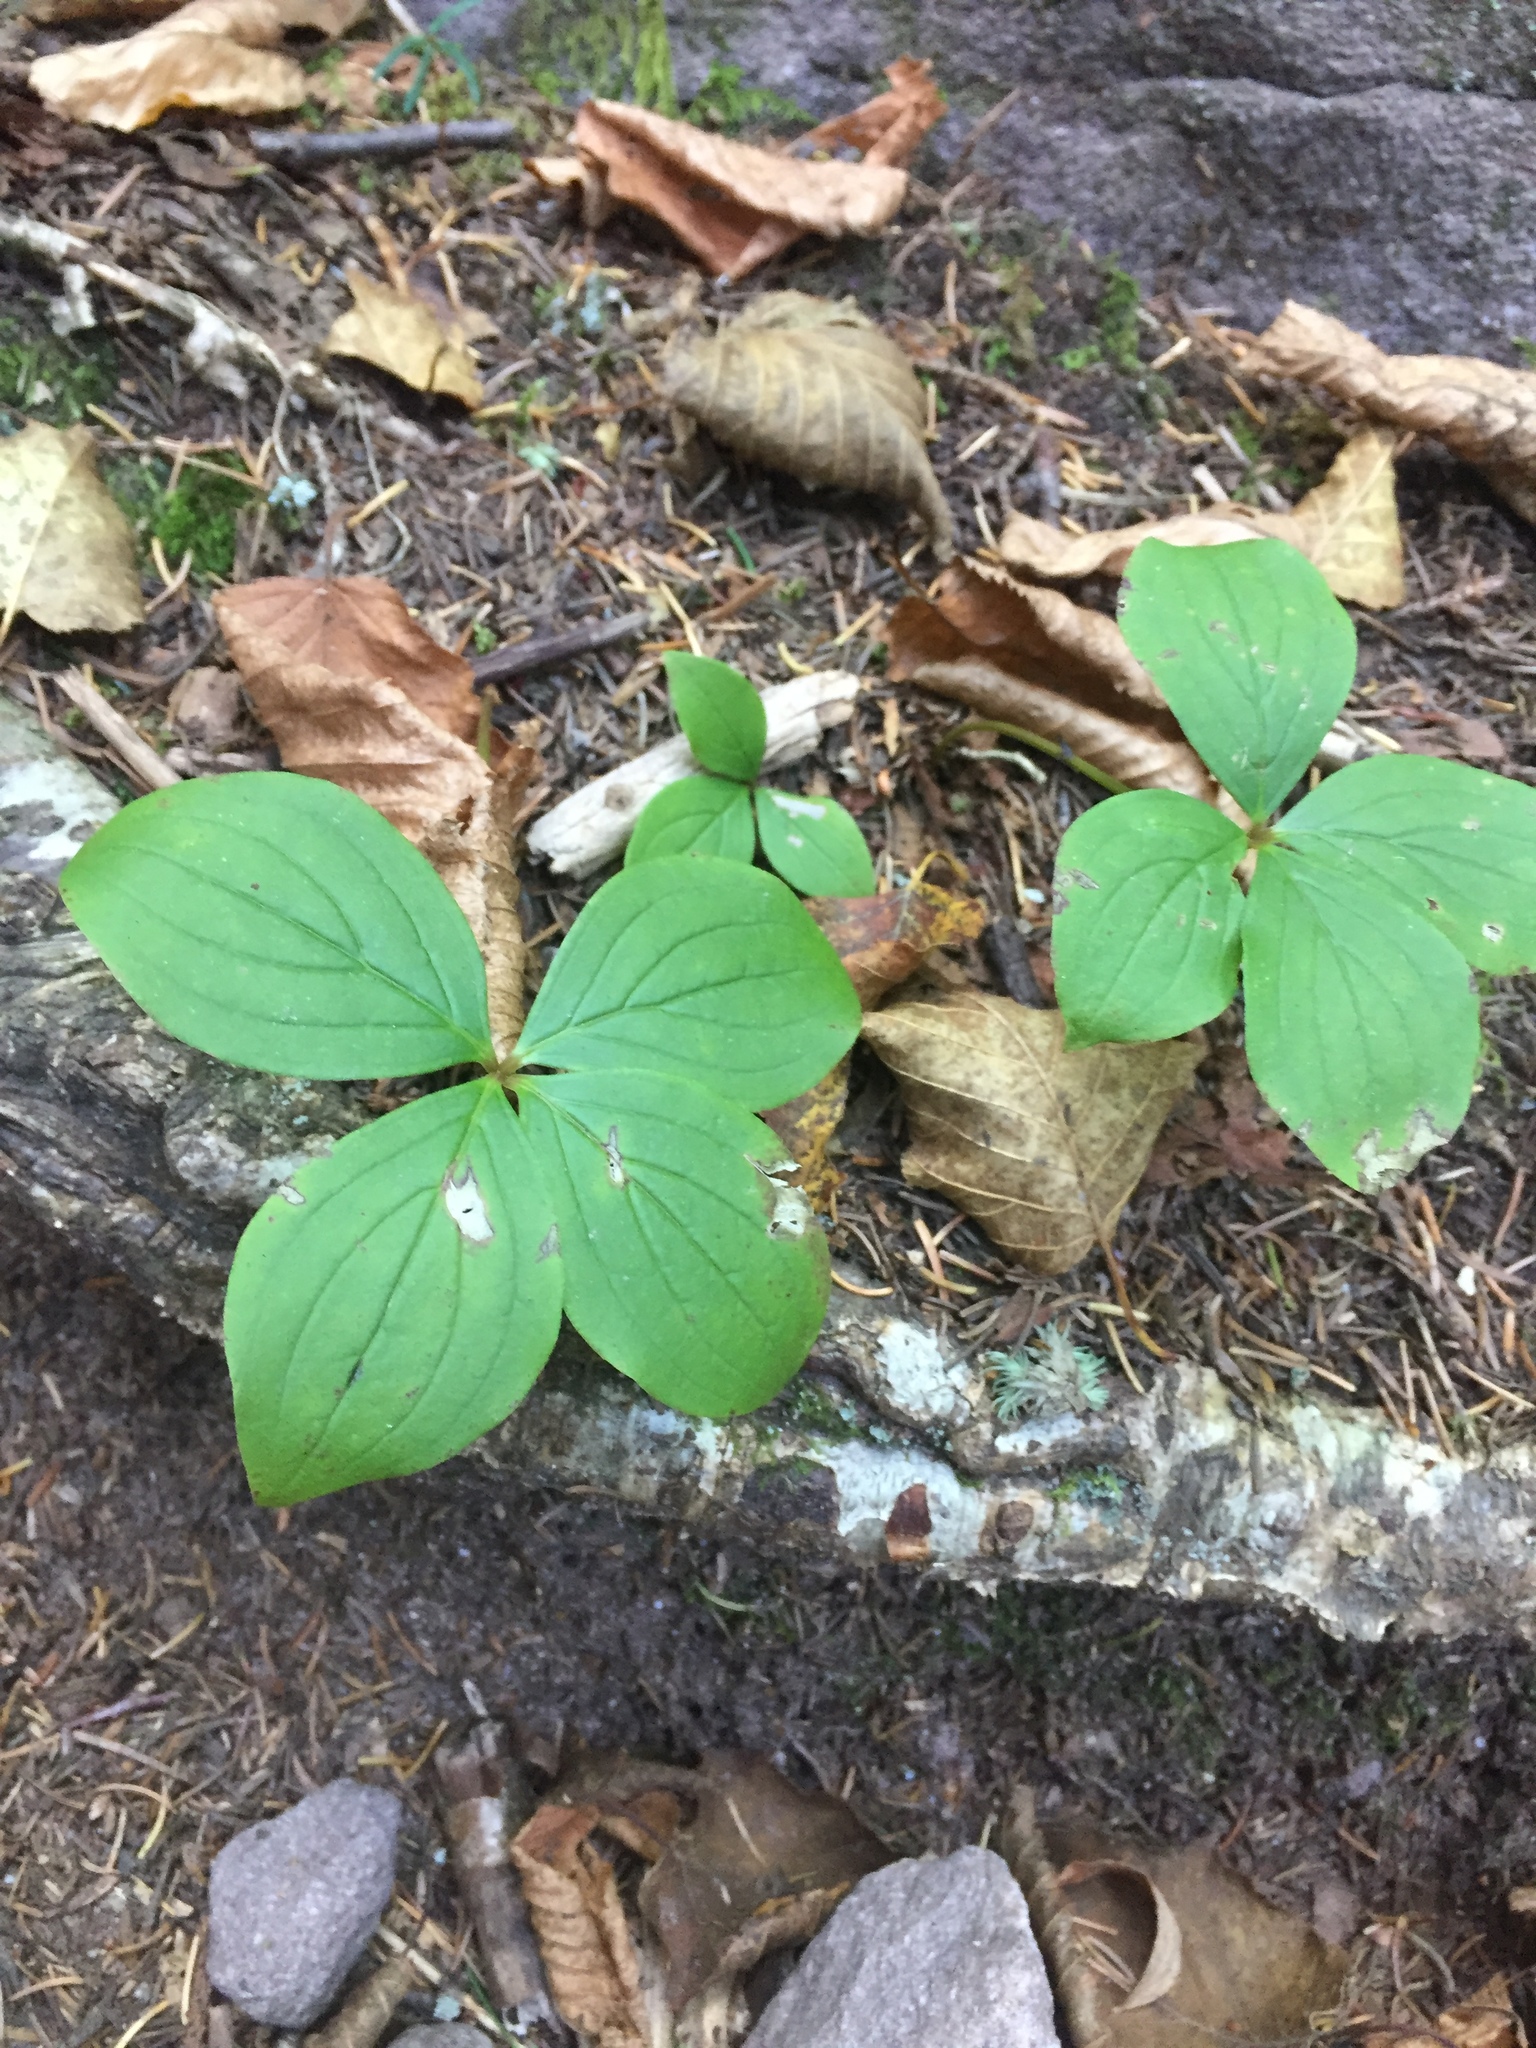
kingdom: Plantae
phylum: Tracheophyta
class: Magnoliopsida
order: Cornales
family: Cornaceae
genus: Cornus
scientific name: Cornus canadensis
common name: Creeping dogwood
